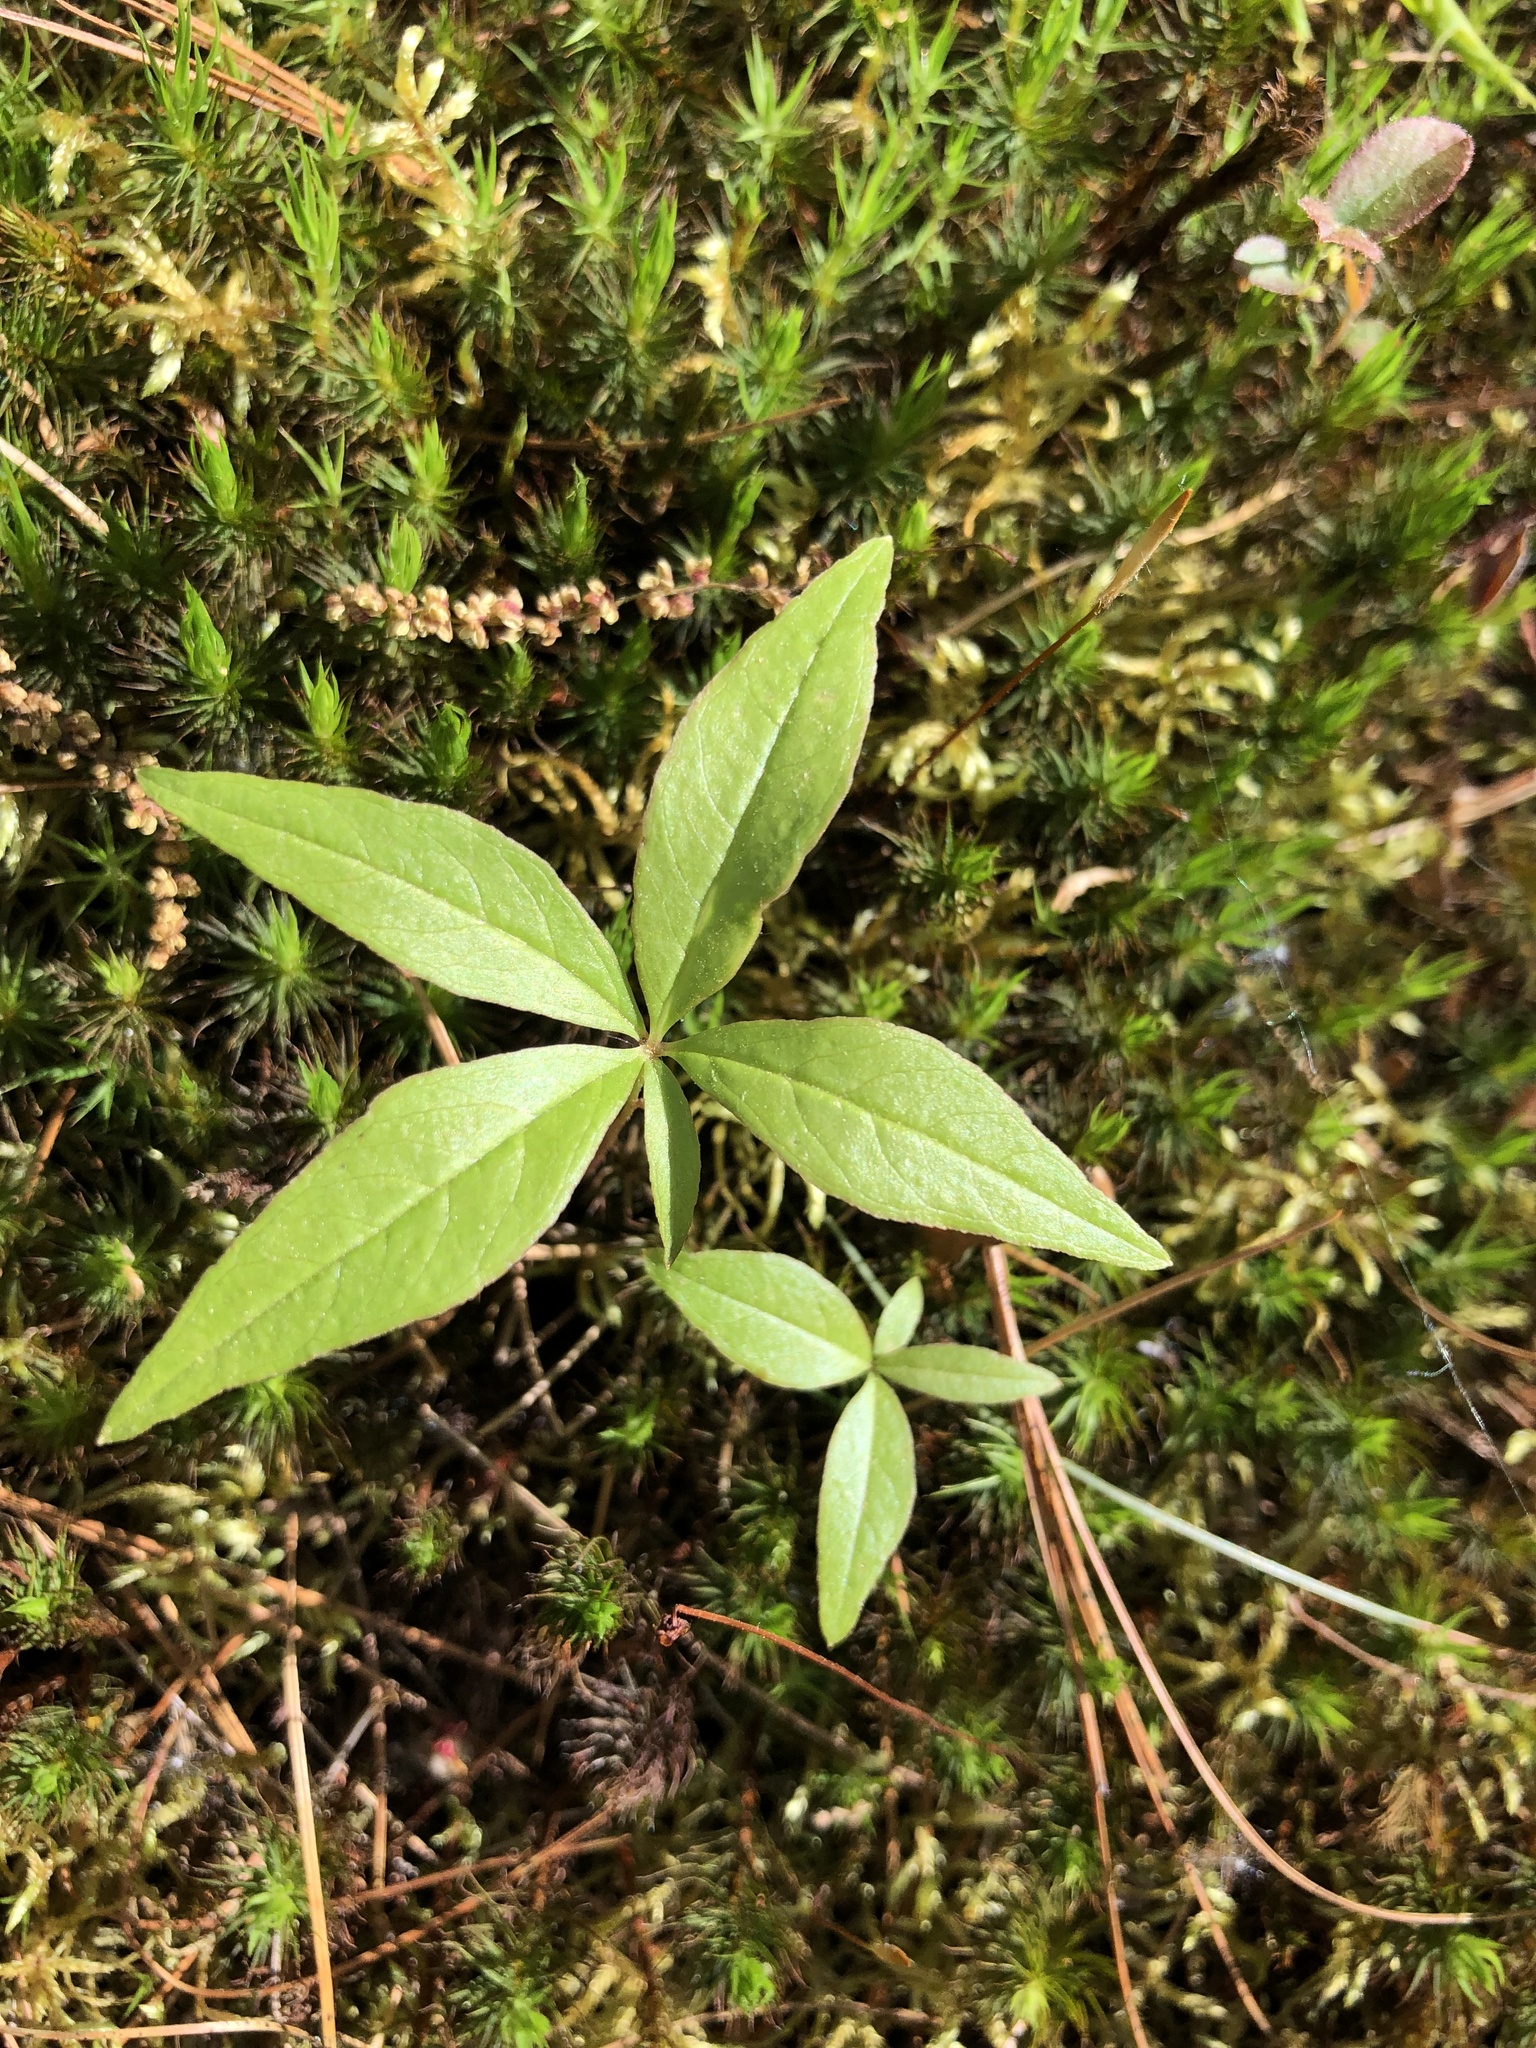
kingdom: Plantae
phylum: Tracheophyta
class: Magnoliopsida
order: Ericales
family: Primulaceae
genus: Lysimachia
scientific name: Lysimachia borealis
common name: American starflower
